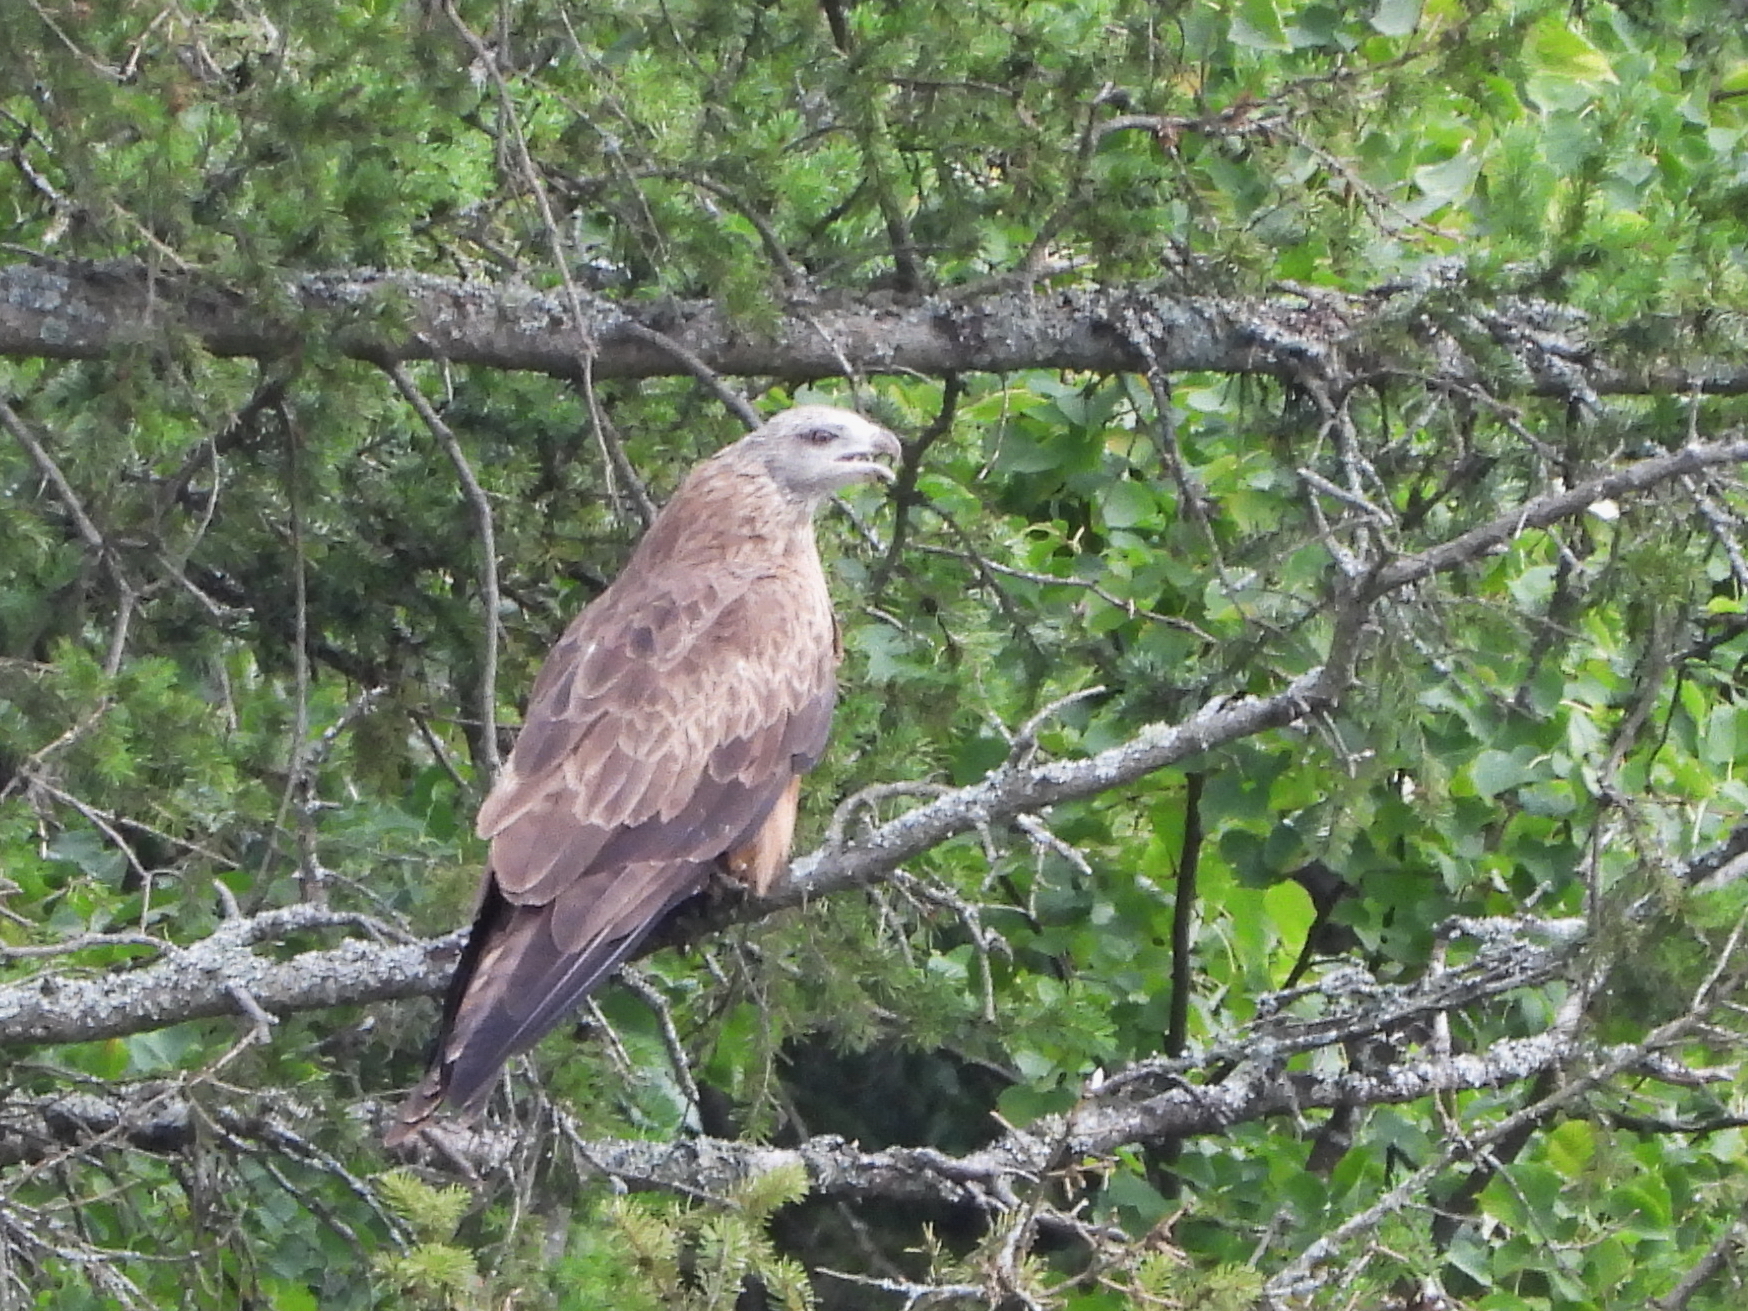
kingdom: Animalia
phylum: Chordata
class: Aves
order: Accipitriformes
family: Accipitridae
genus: Milvus
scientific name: Milvus migrans
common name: Black kite
